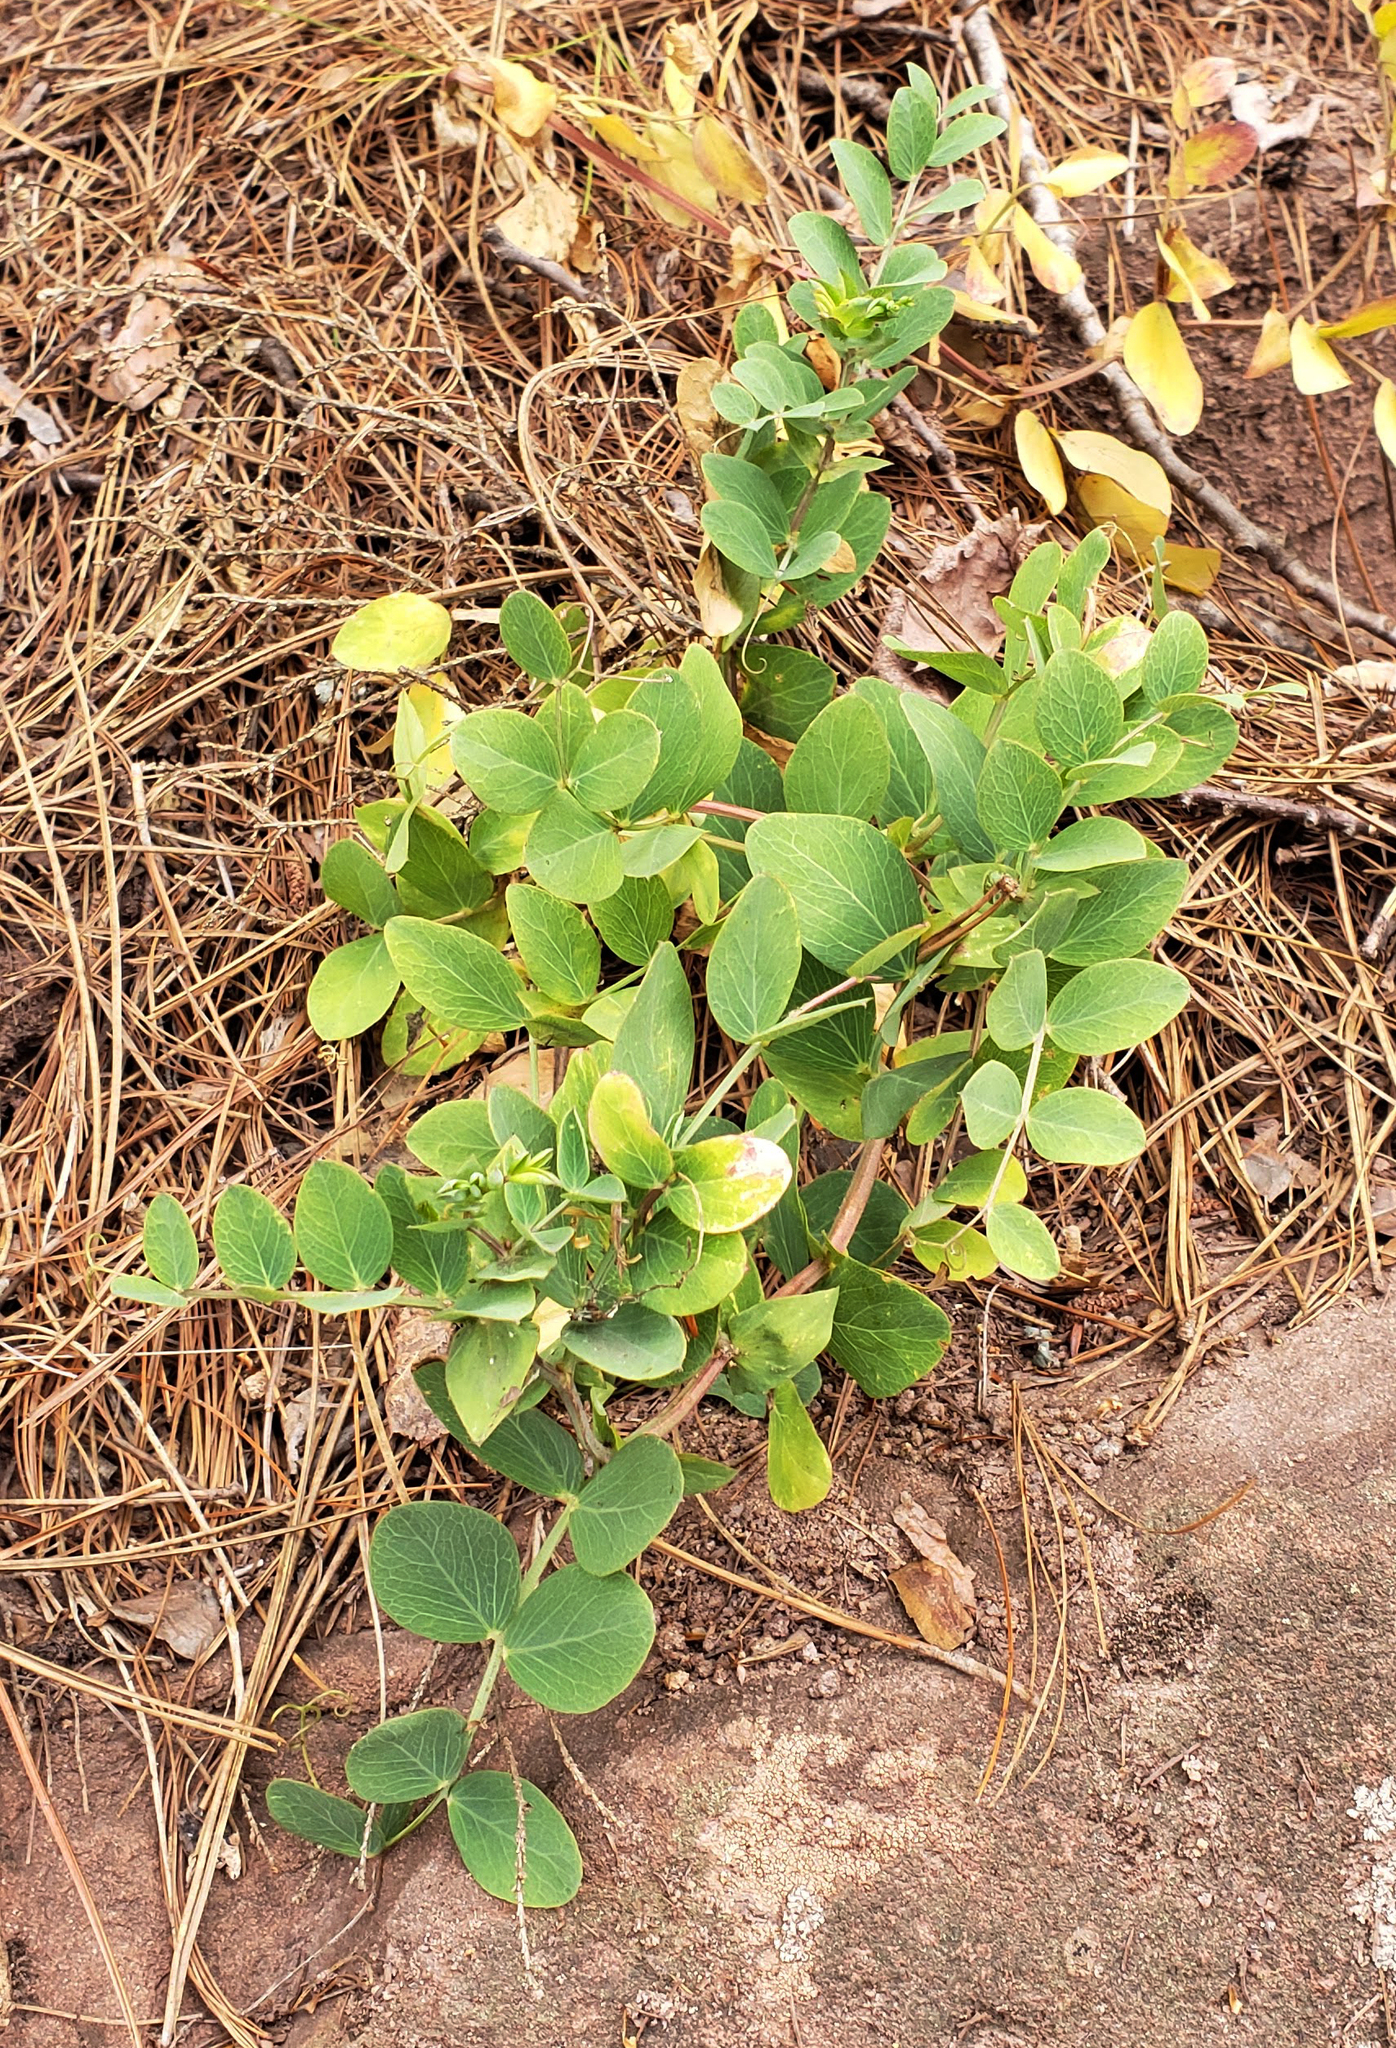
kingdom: Plantae
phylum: Tracheophyta
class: Magnoliopsida
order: Fabales
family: Fabaceae
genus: Lathyrus
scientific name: Lathyrus japonicus
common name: Sea pea
